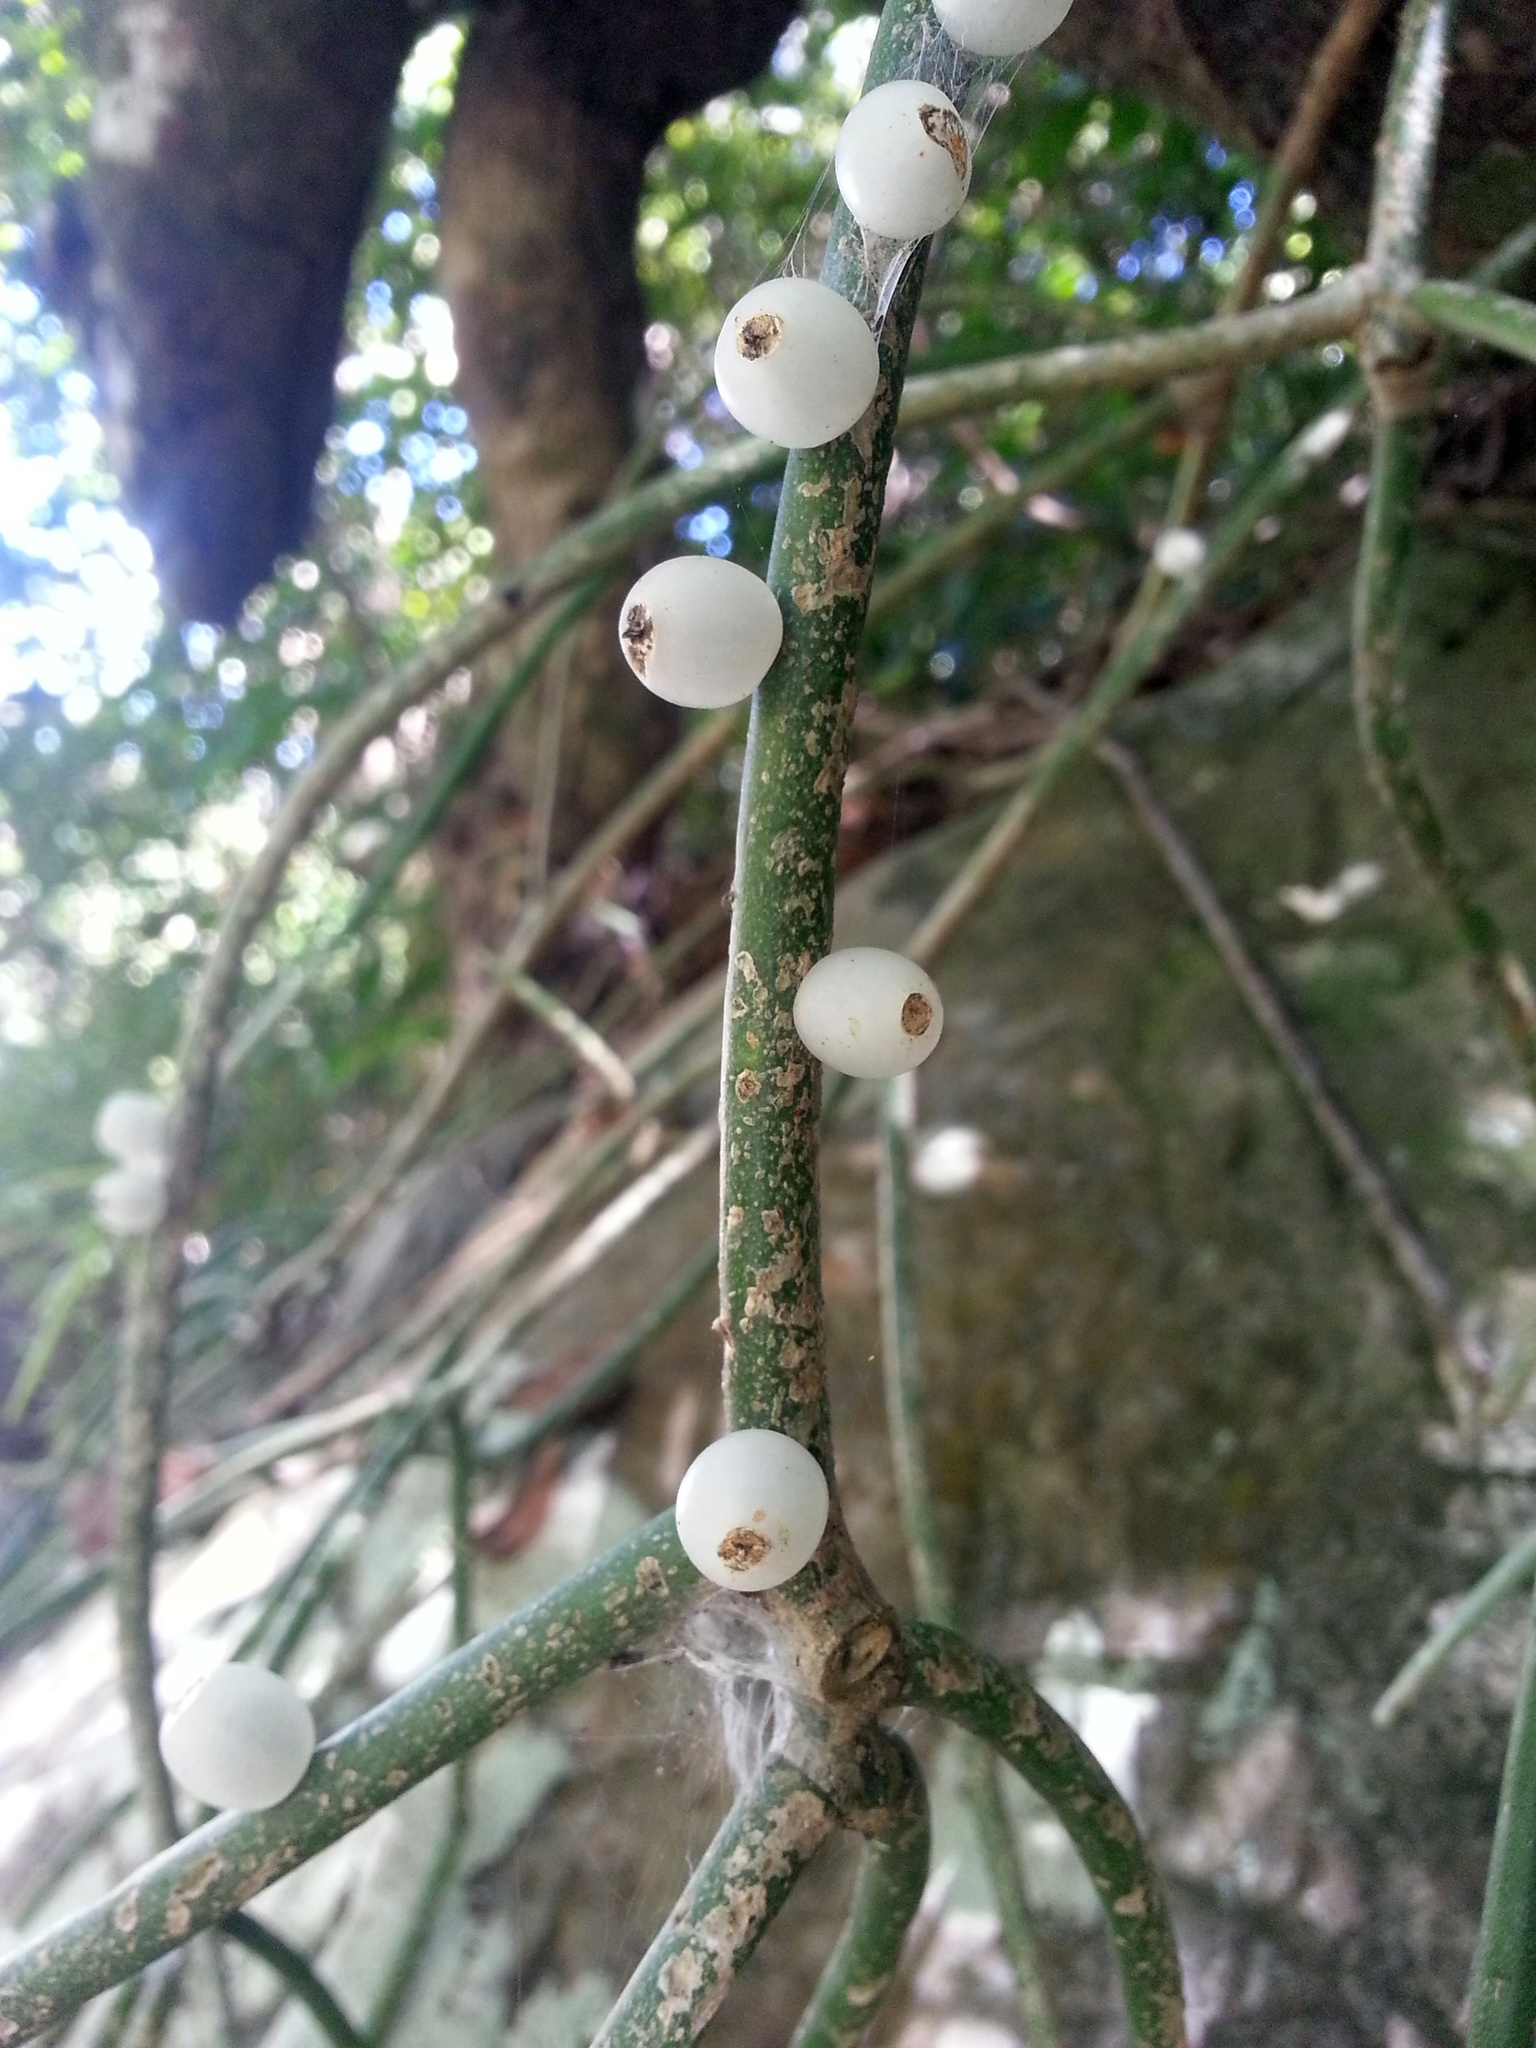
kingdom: Plantae
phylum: Tracheophyta
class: Magnoliopsida
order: Caryophyllales
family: Cactaceae
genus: Rhipsalis
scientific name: Rhipsalis baccifera
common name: Mistletoe cactus
